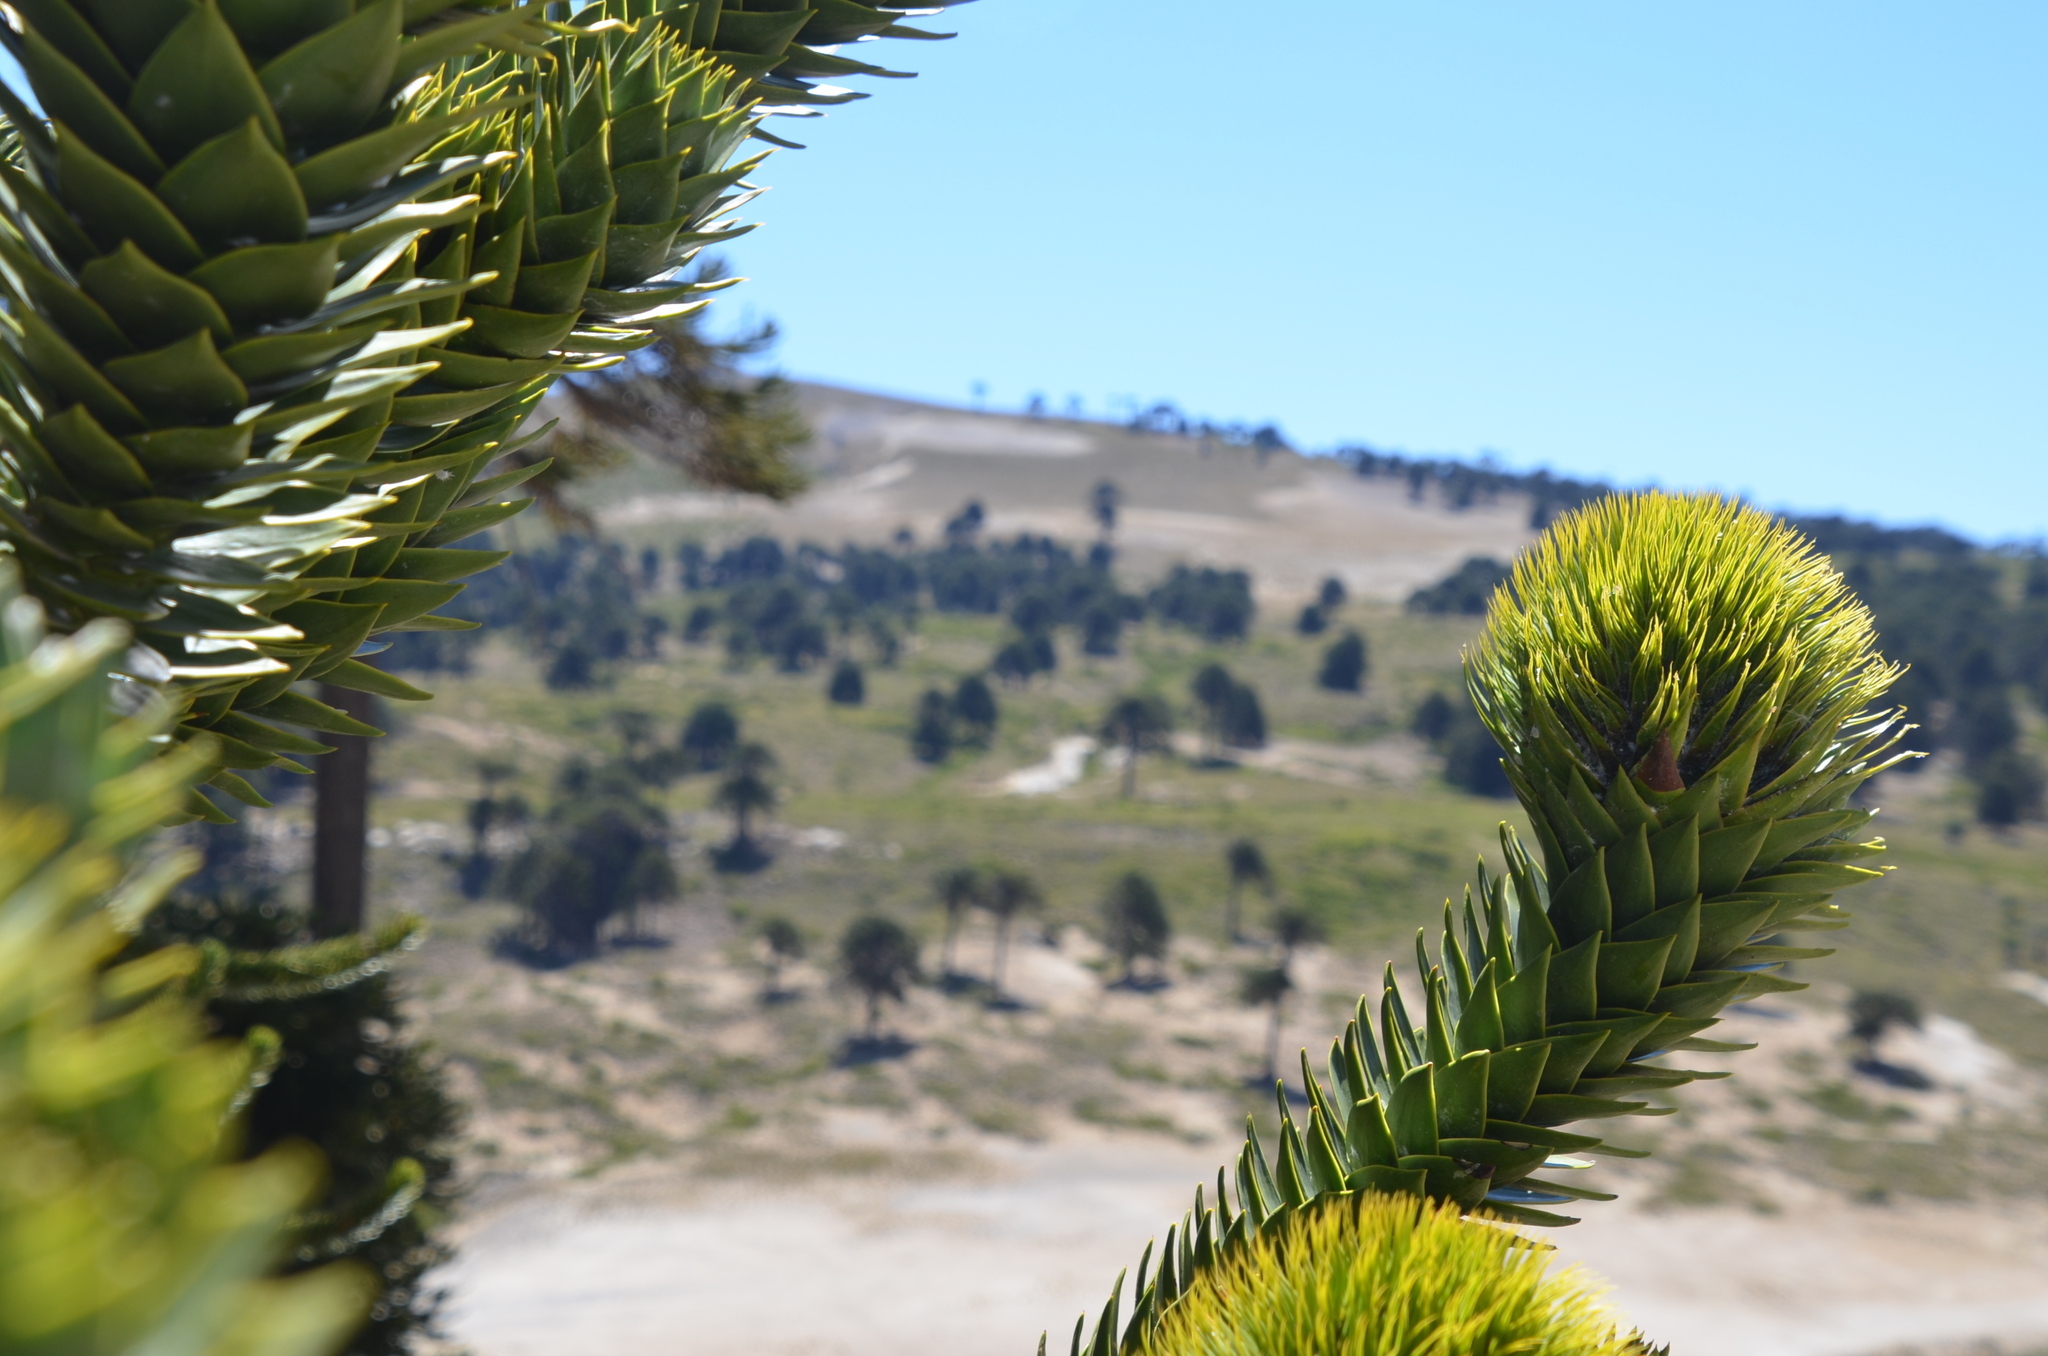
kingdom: Plantae
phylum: Tracheophyta
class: Pinopsida
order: Pinales
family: Araucariaceae
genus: Araucaria
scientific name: Araucaria araucana
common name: Monkey-puzzle
